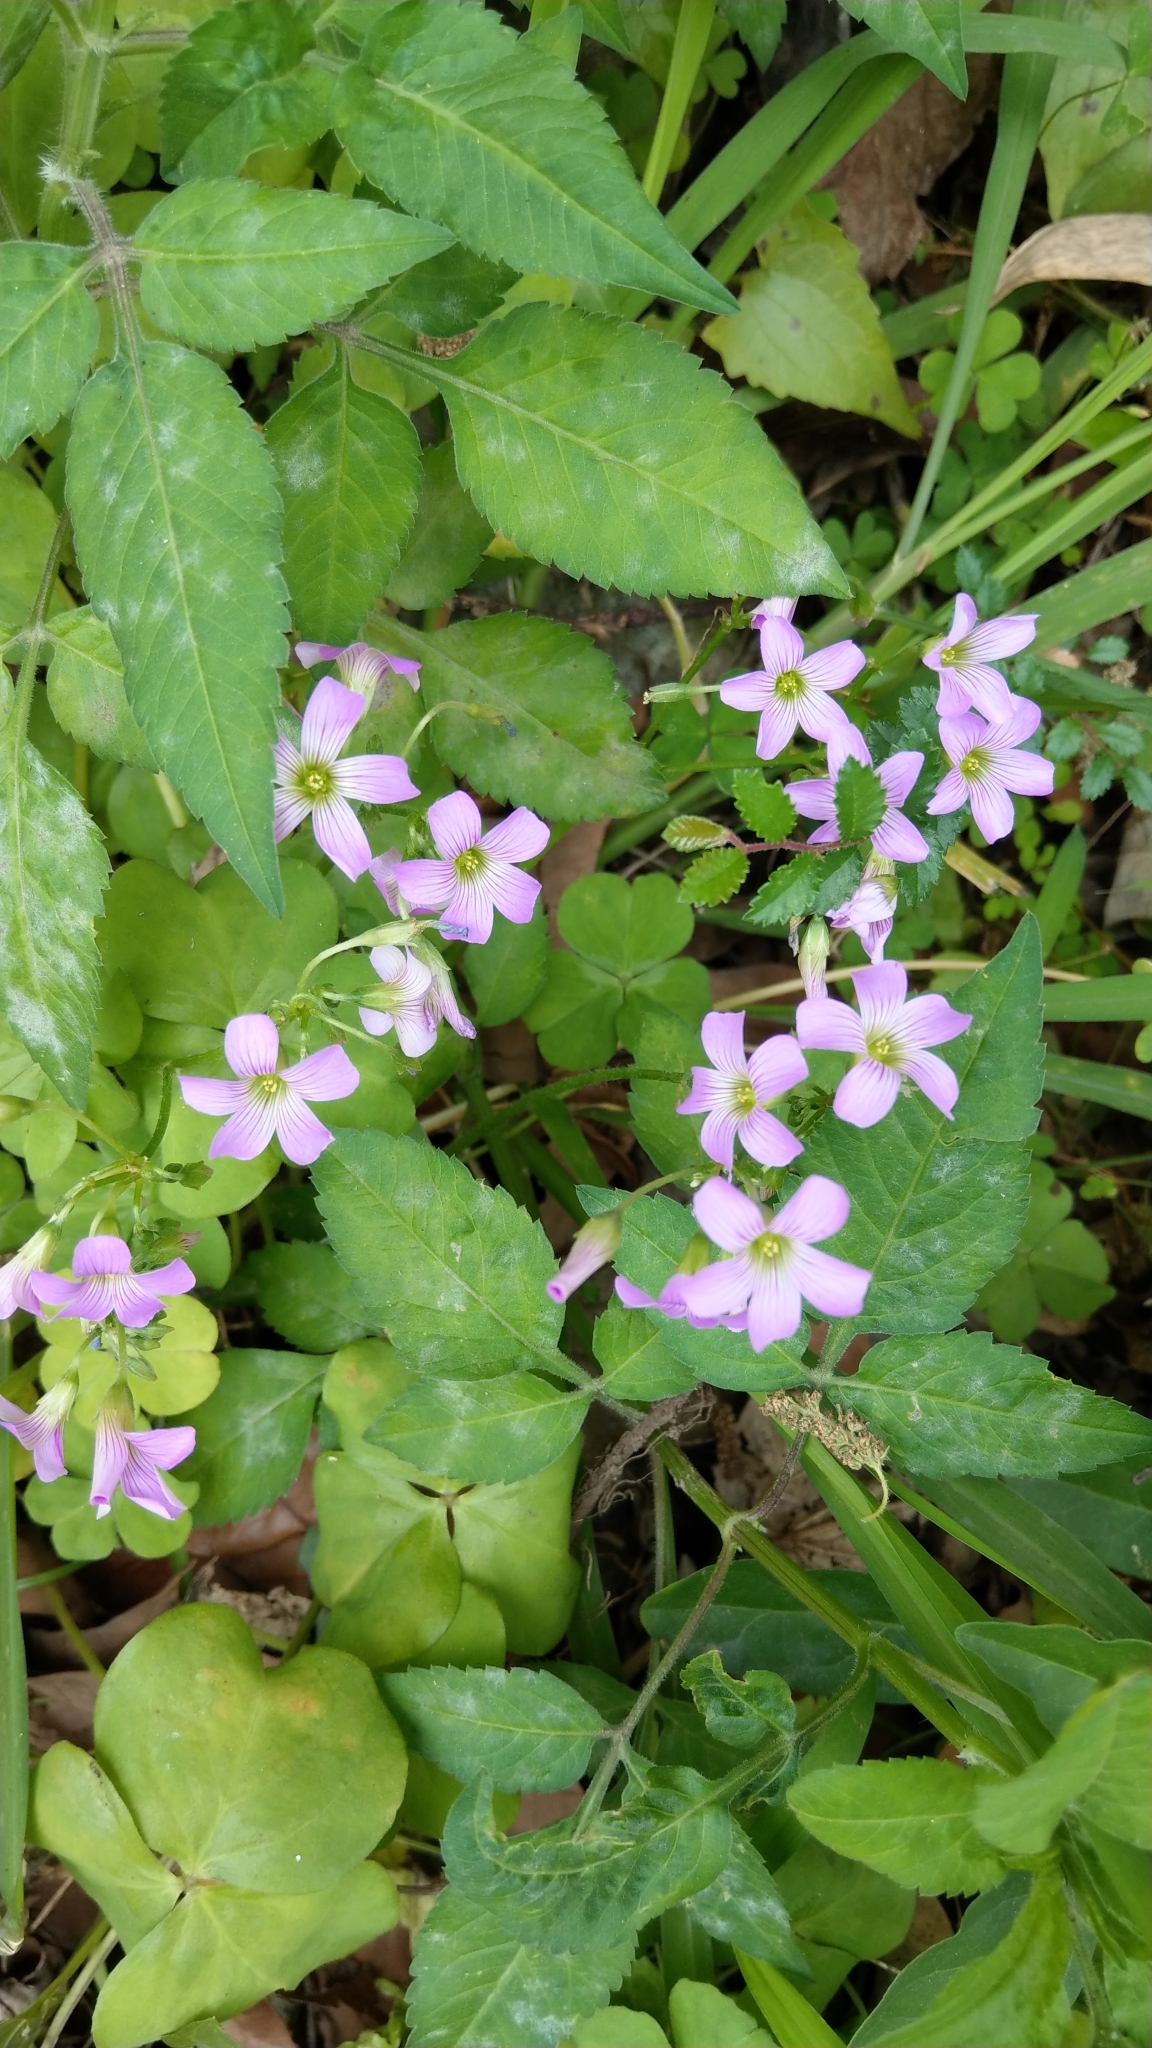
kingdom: Plantae
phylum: Tracheophyta
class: Magnoliopsida
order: Oxalidales
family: Oxalidaceae
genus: Oxalis
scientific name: Oxalis debilis
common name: Large-flowered pink-sorrel
